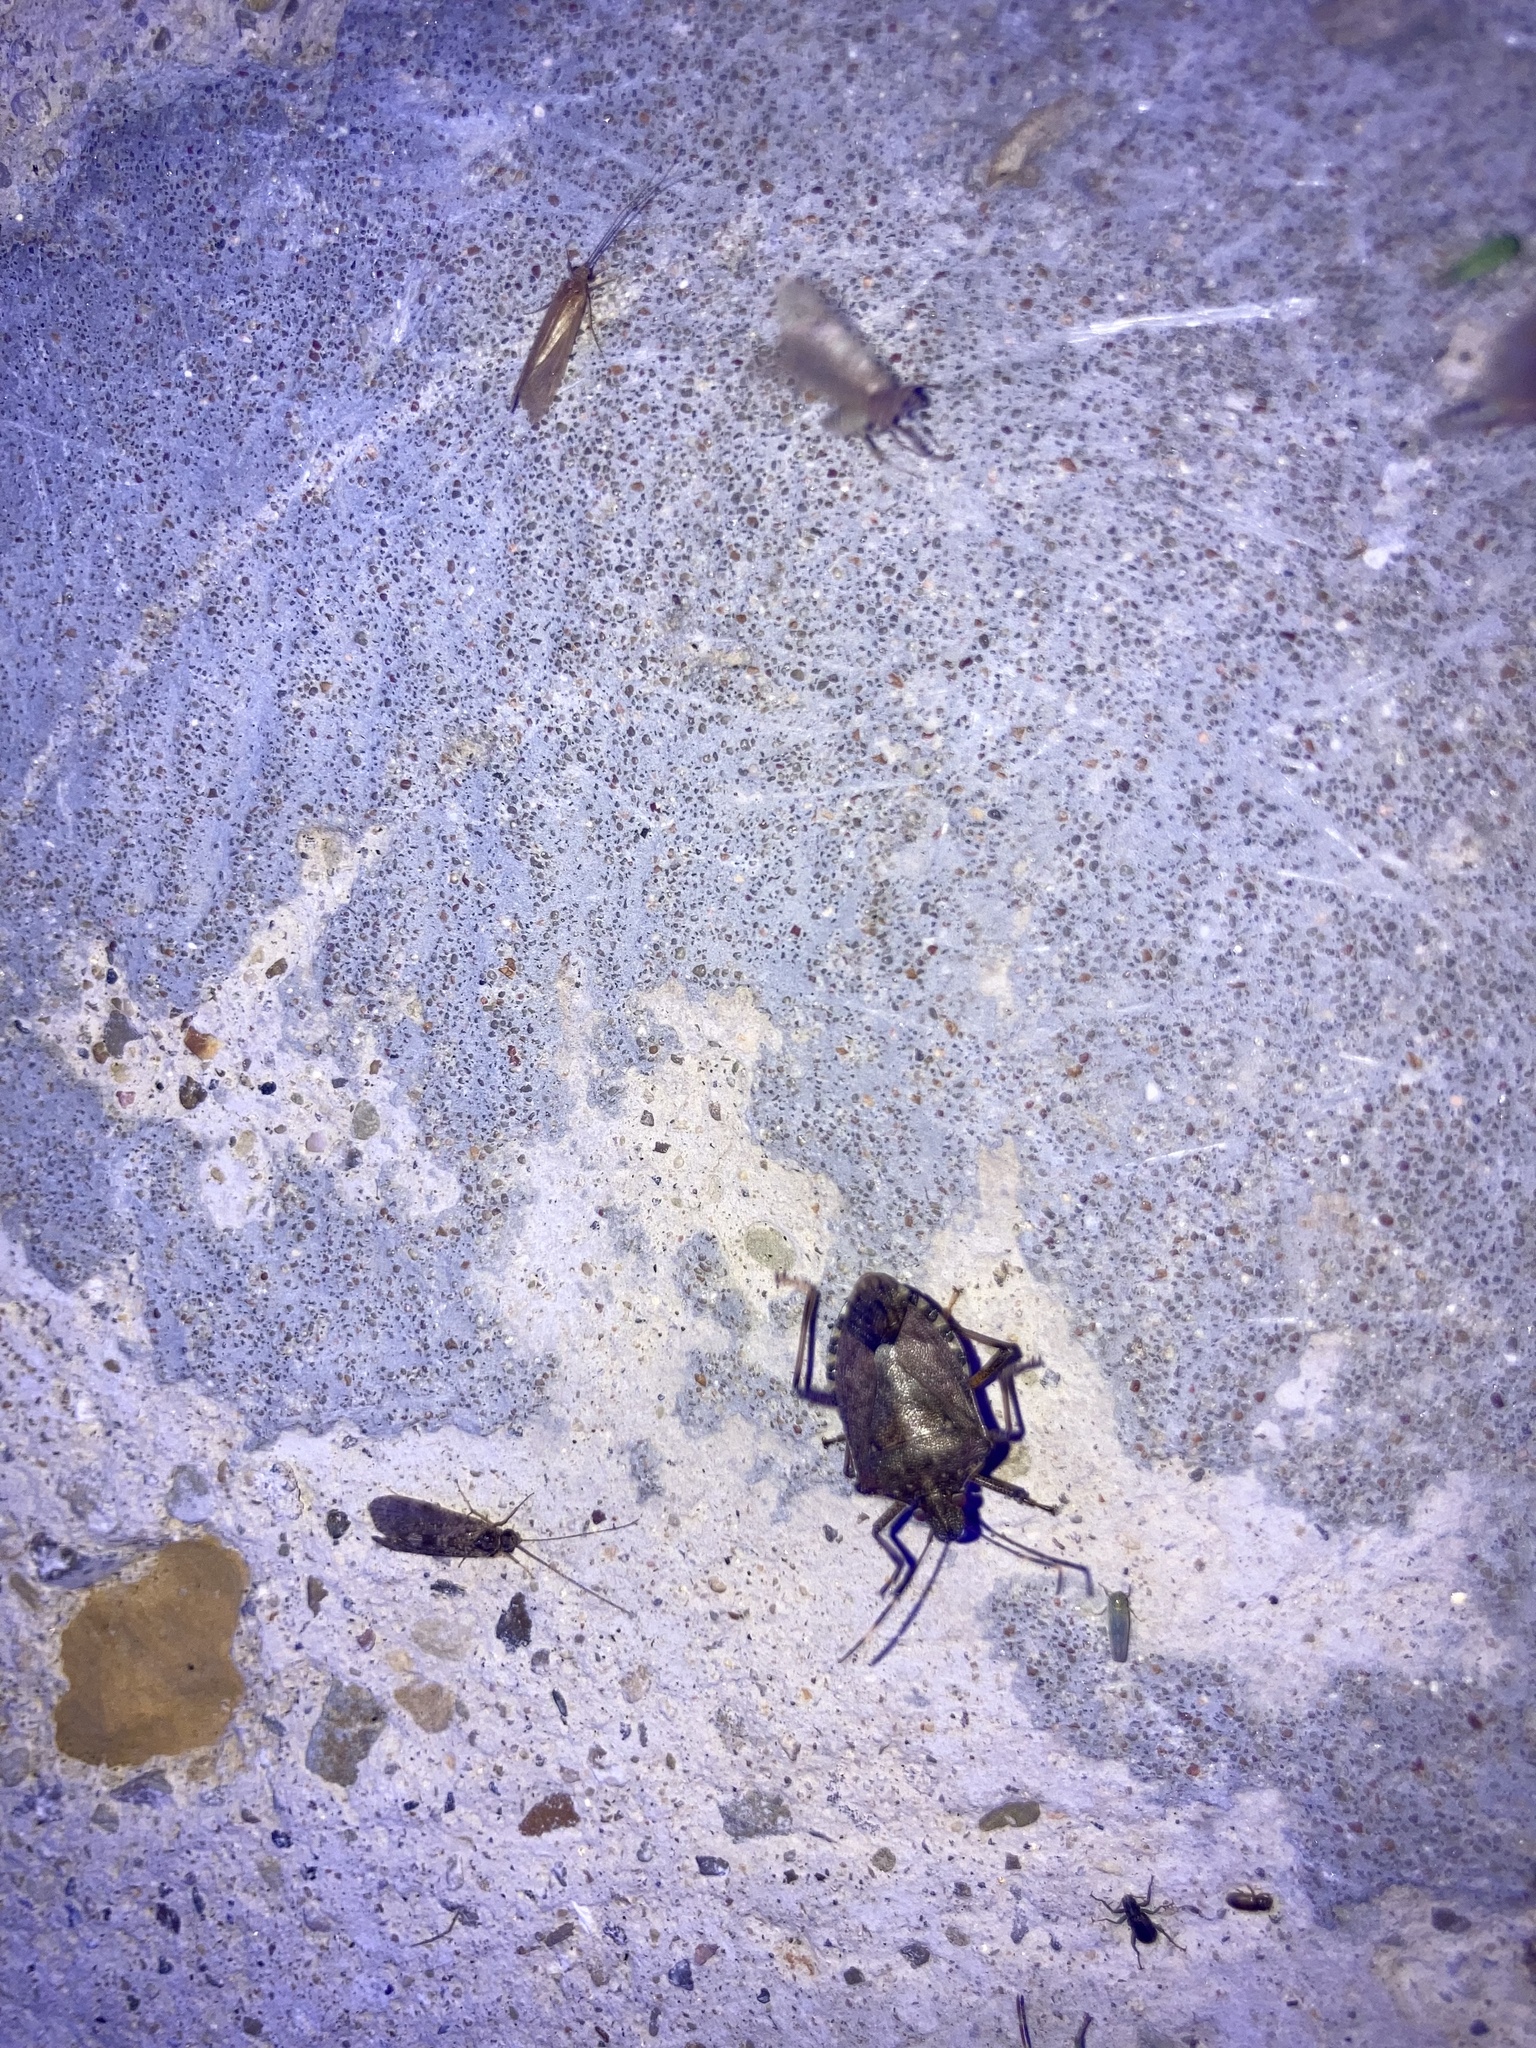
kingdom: Animalia
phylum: Arthropoda
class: Insecta
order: Hemiptera
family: Pentatomidae
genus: Halyomorpha
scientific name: Halyomorpha halys
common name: Brown marmorated stink bug
